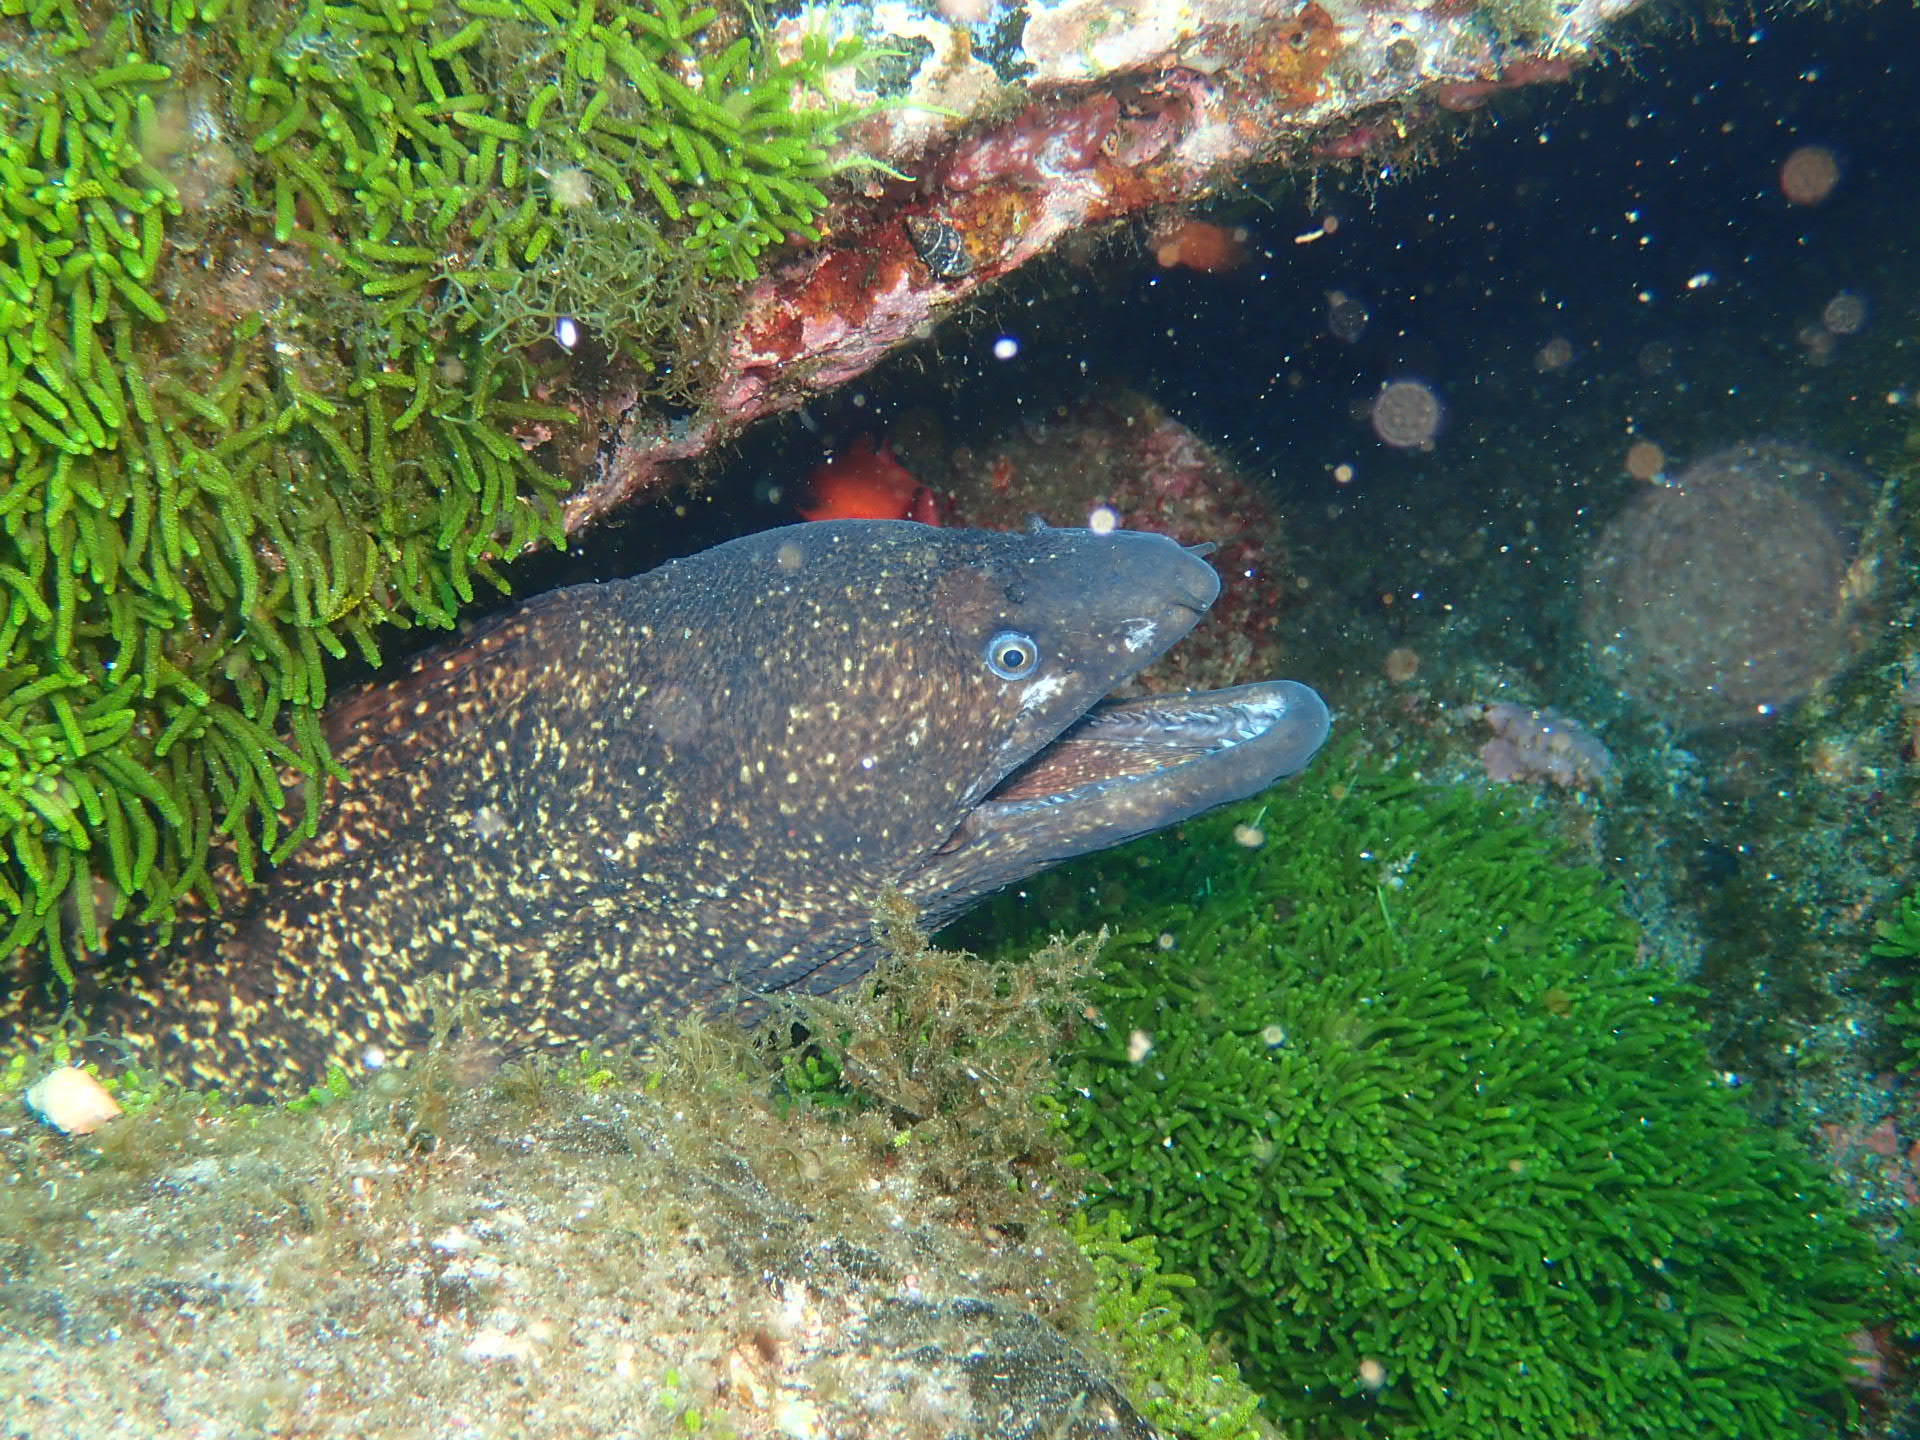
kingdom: Animalia
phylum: Chordata
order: Anguilliformes
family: Muraenidae
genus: Muraena
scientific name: Muraena helena
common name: Mediterranean moray
